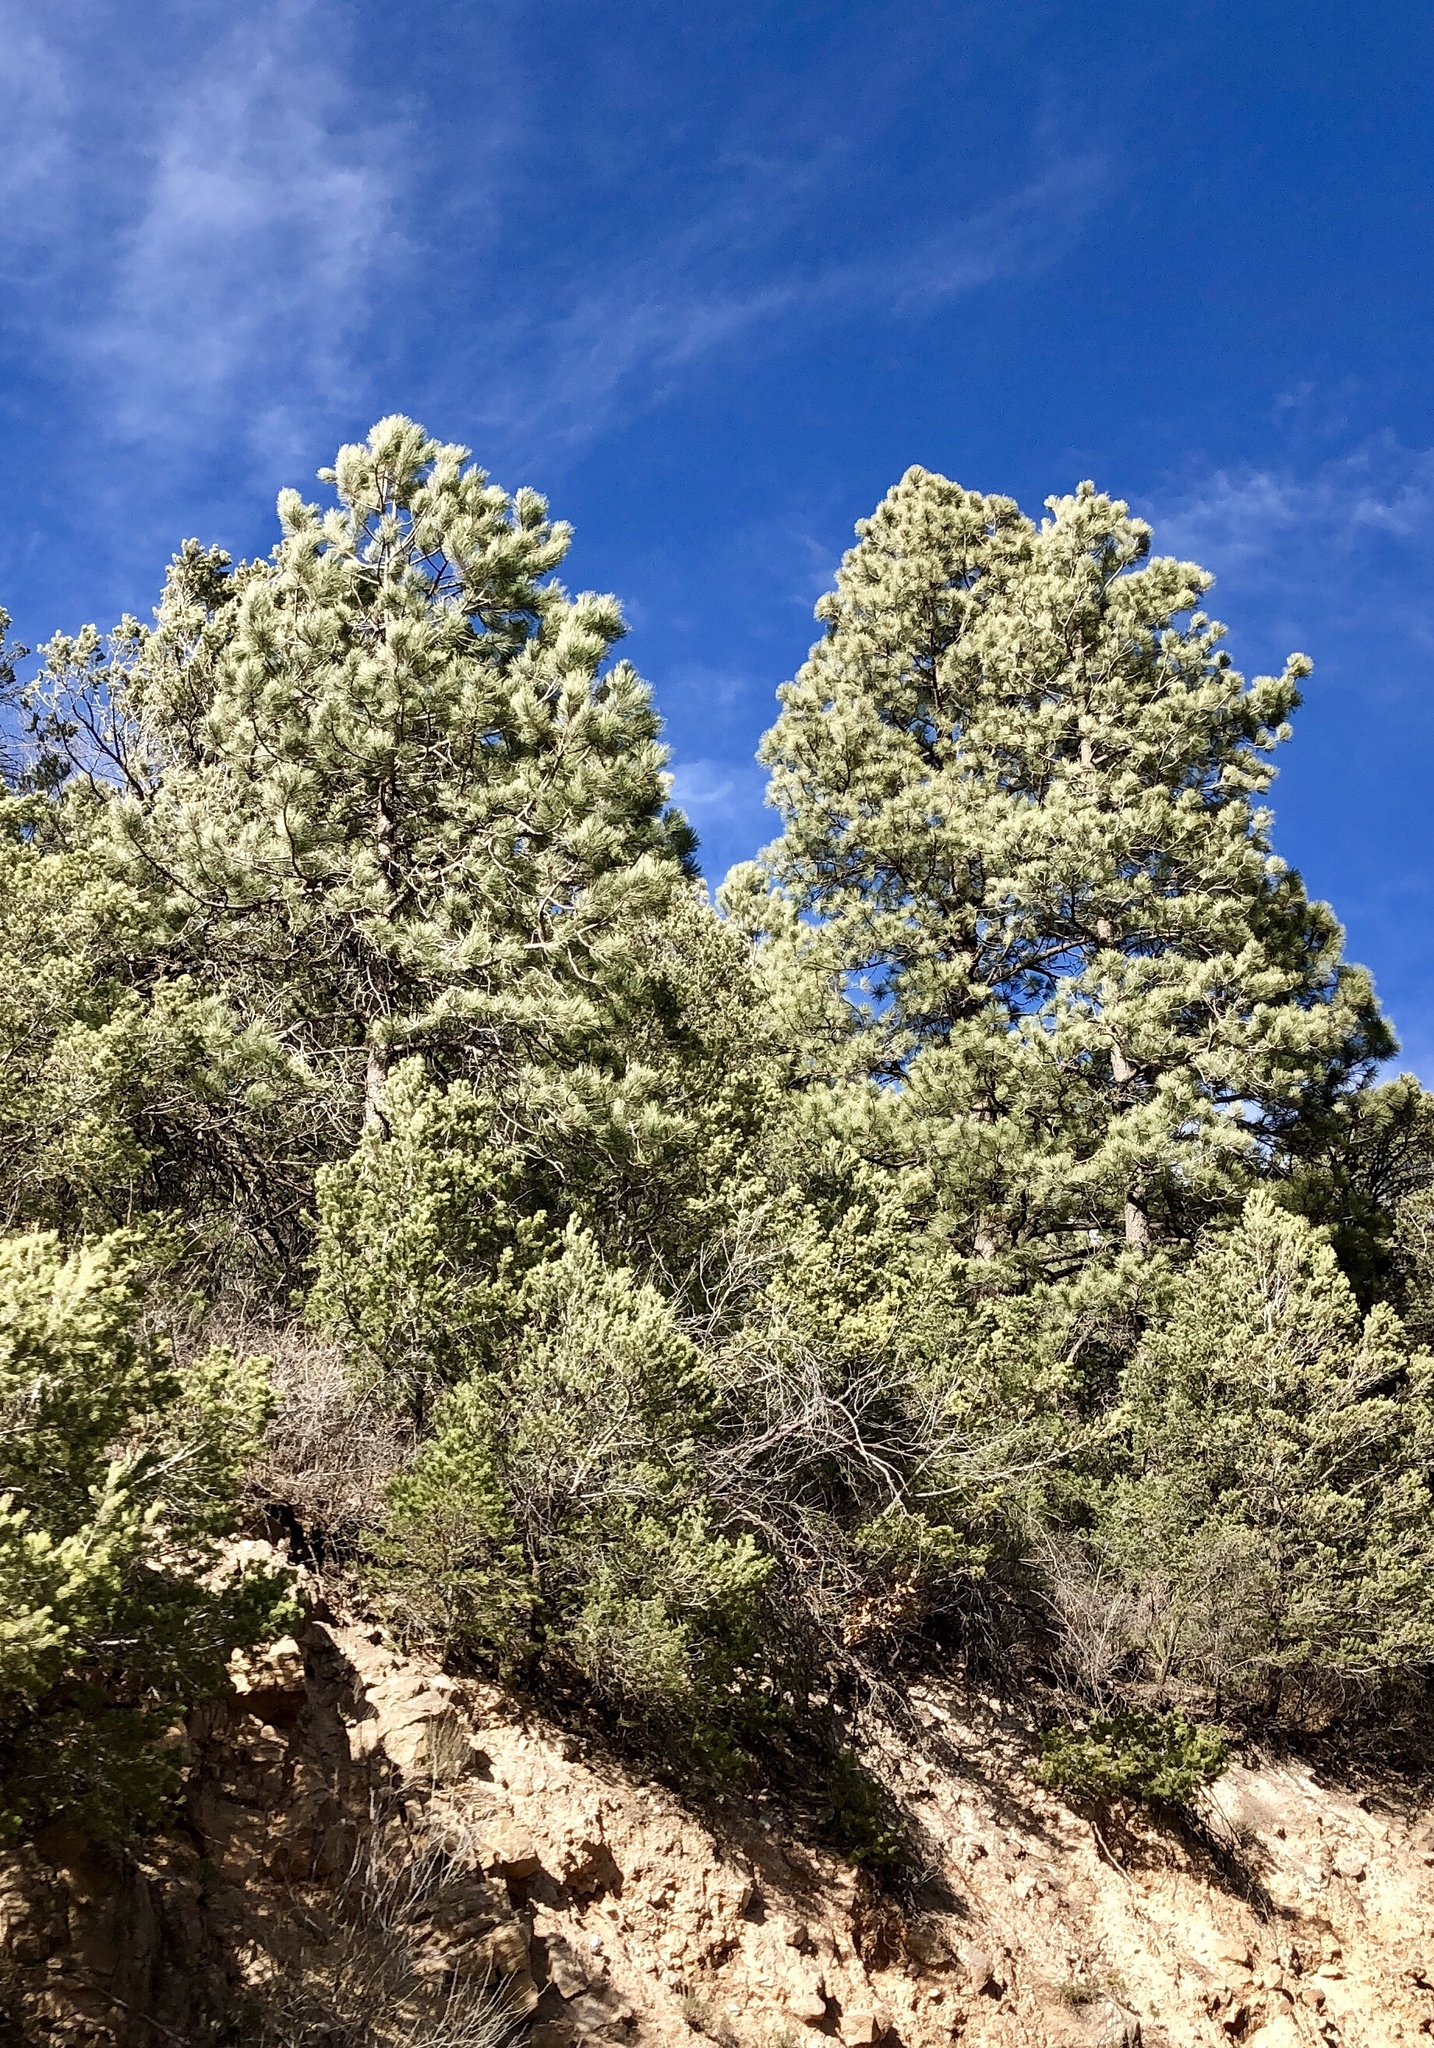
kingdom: Plantae
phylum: Tracheophyta
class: Pinopsida
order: Pinales
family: Pinaceae
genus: Pinus
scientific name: Pinus ponderosa
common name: Western yellow-pine
